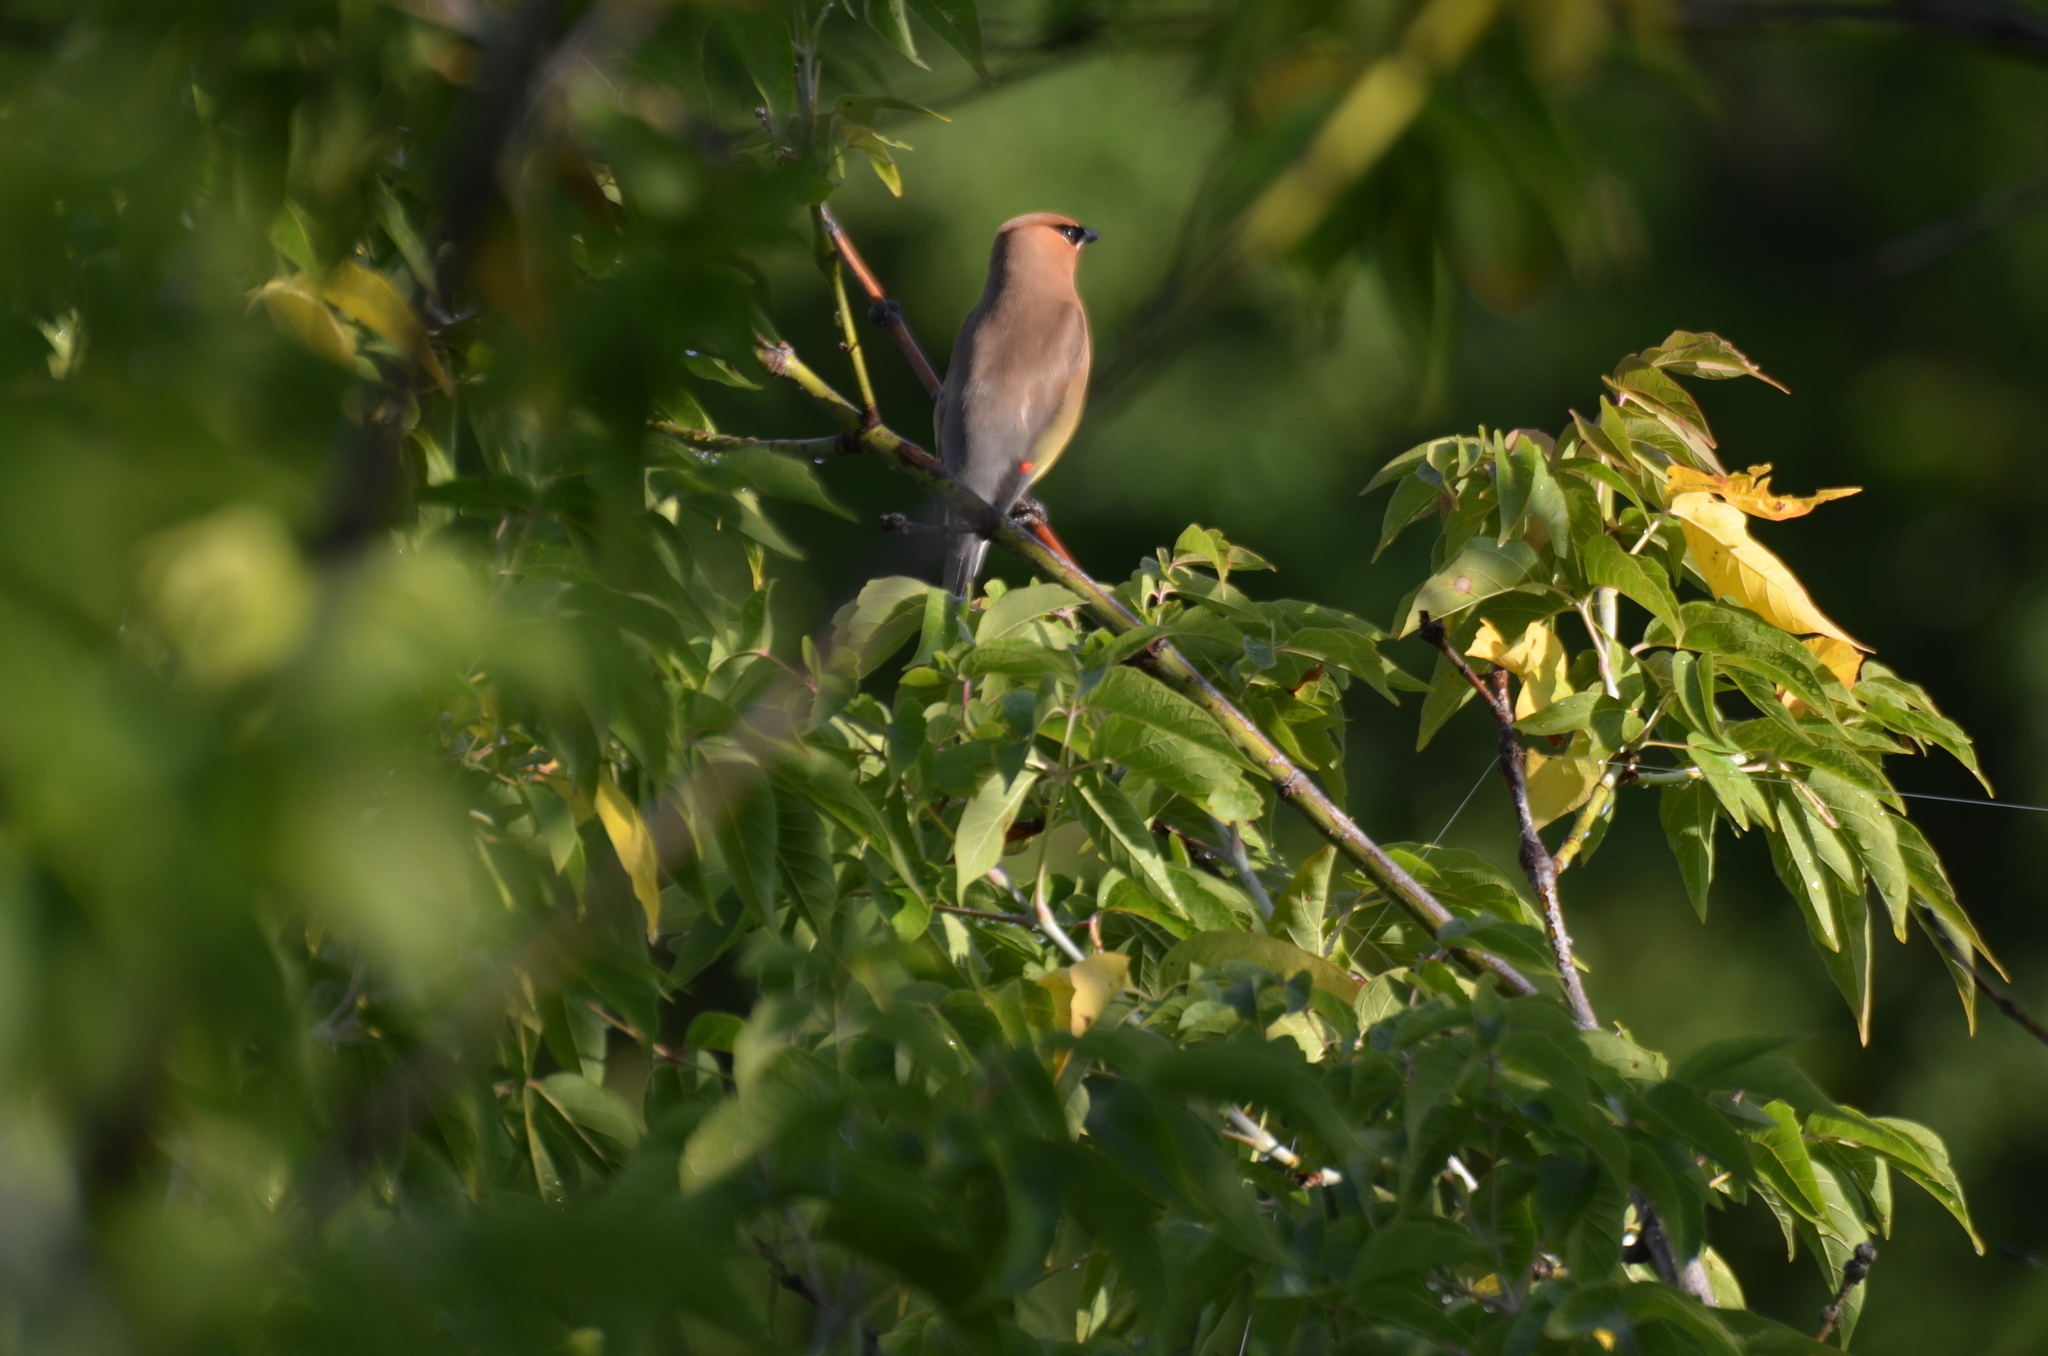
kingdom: Animalia
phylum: Chordata
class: Aves
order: Passeriformes
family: Bombycillidae
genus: Bombycilla
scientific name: Bombycilla cedrorum
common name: Cedar waxwing
